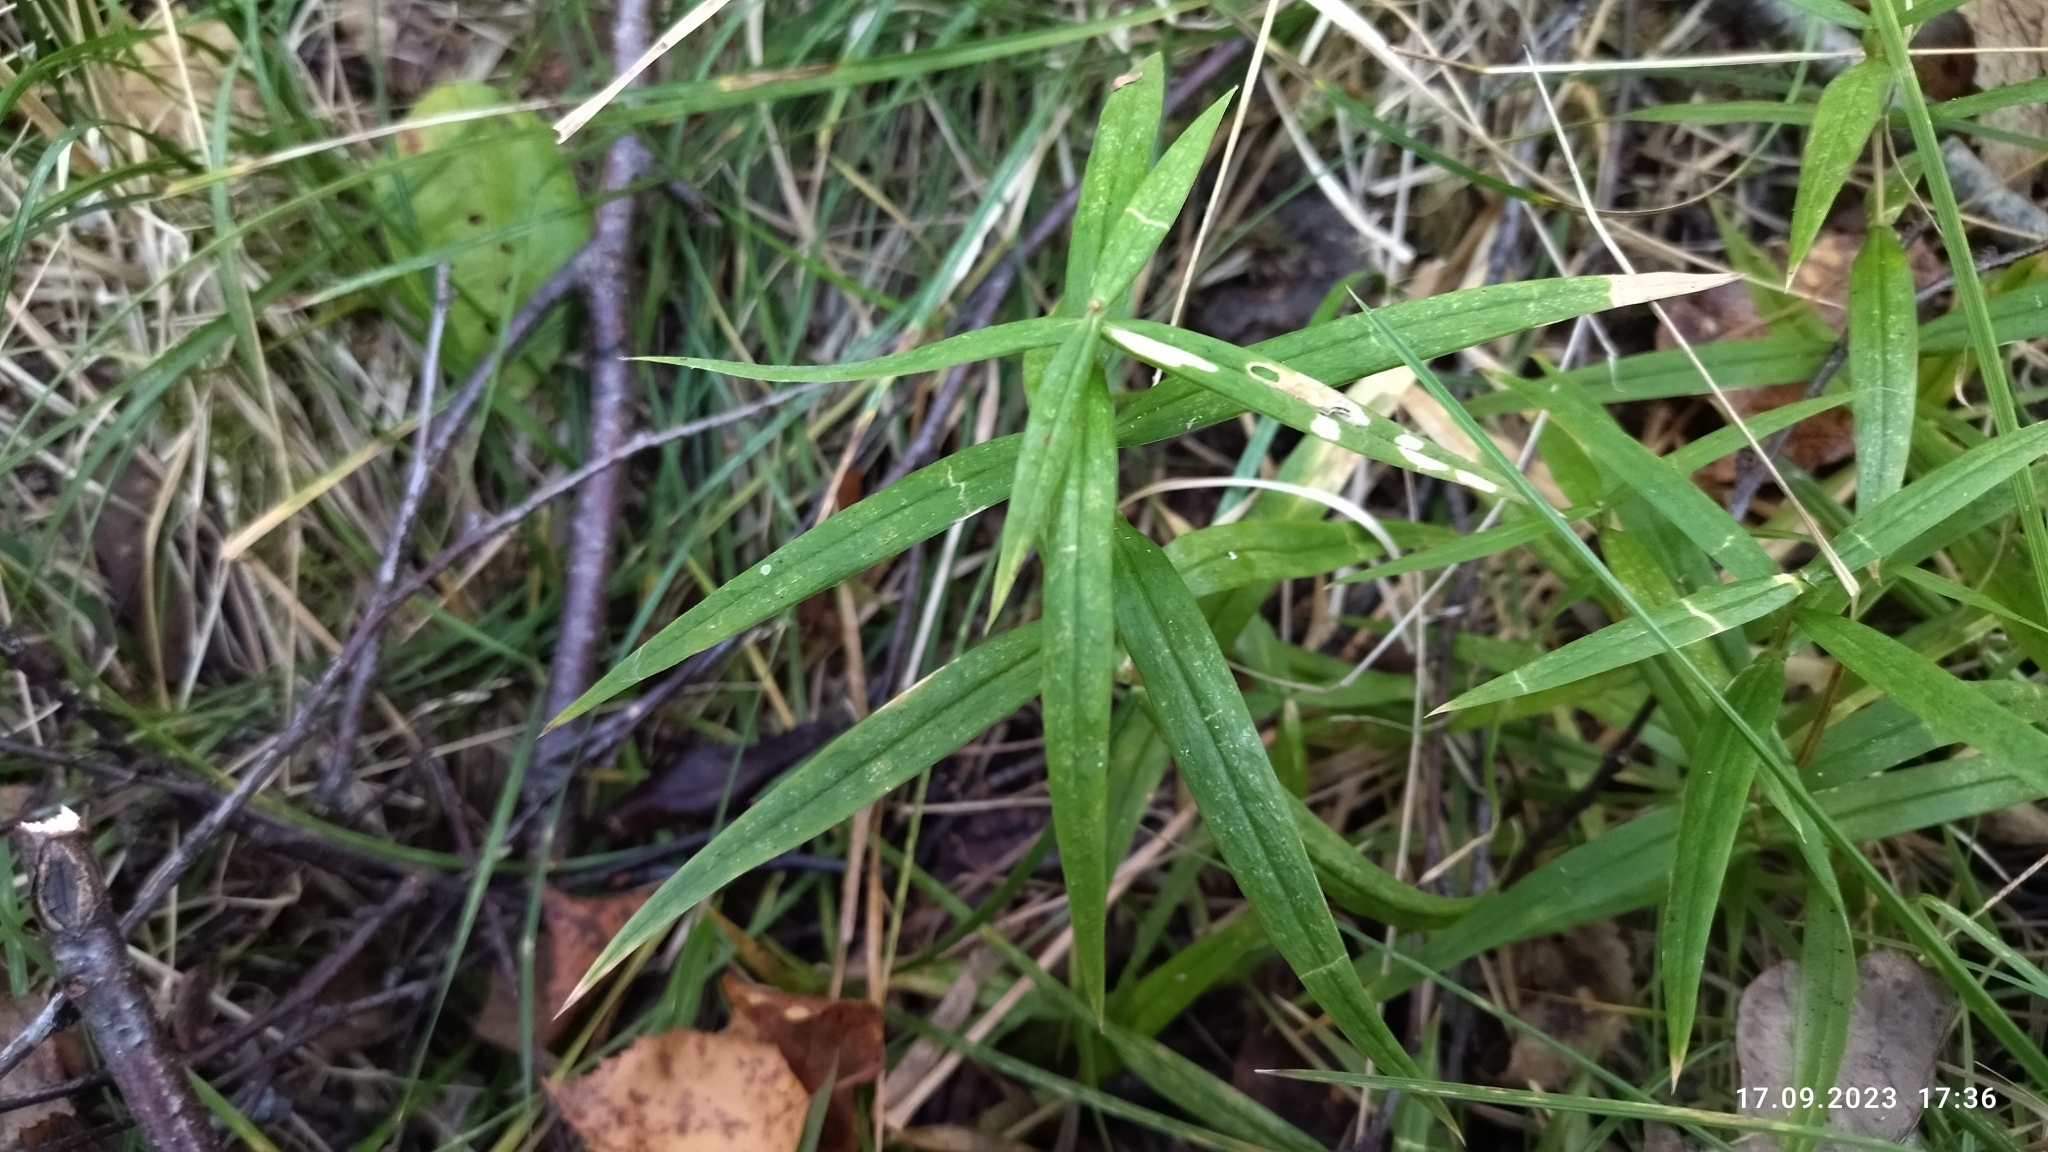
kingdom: Plantae
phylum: Tracheophyta
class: Magnoliopsida
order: Caryophyllales
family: Caryophyllaceae
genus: Rabelera
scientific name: Rabelera holostea
